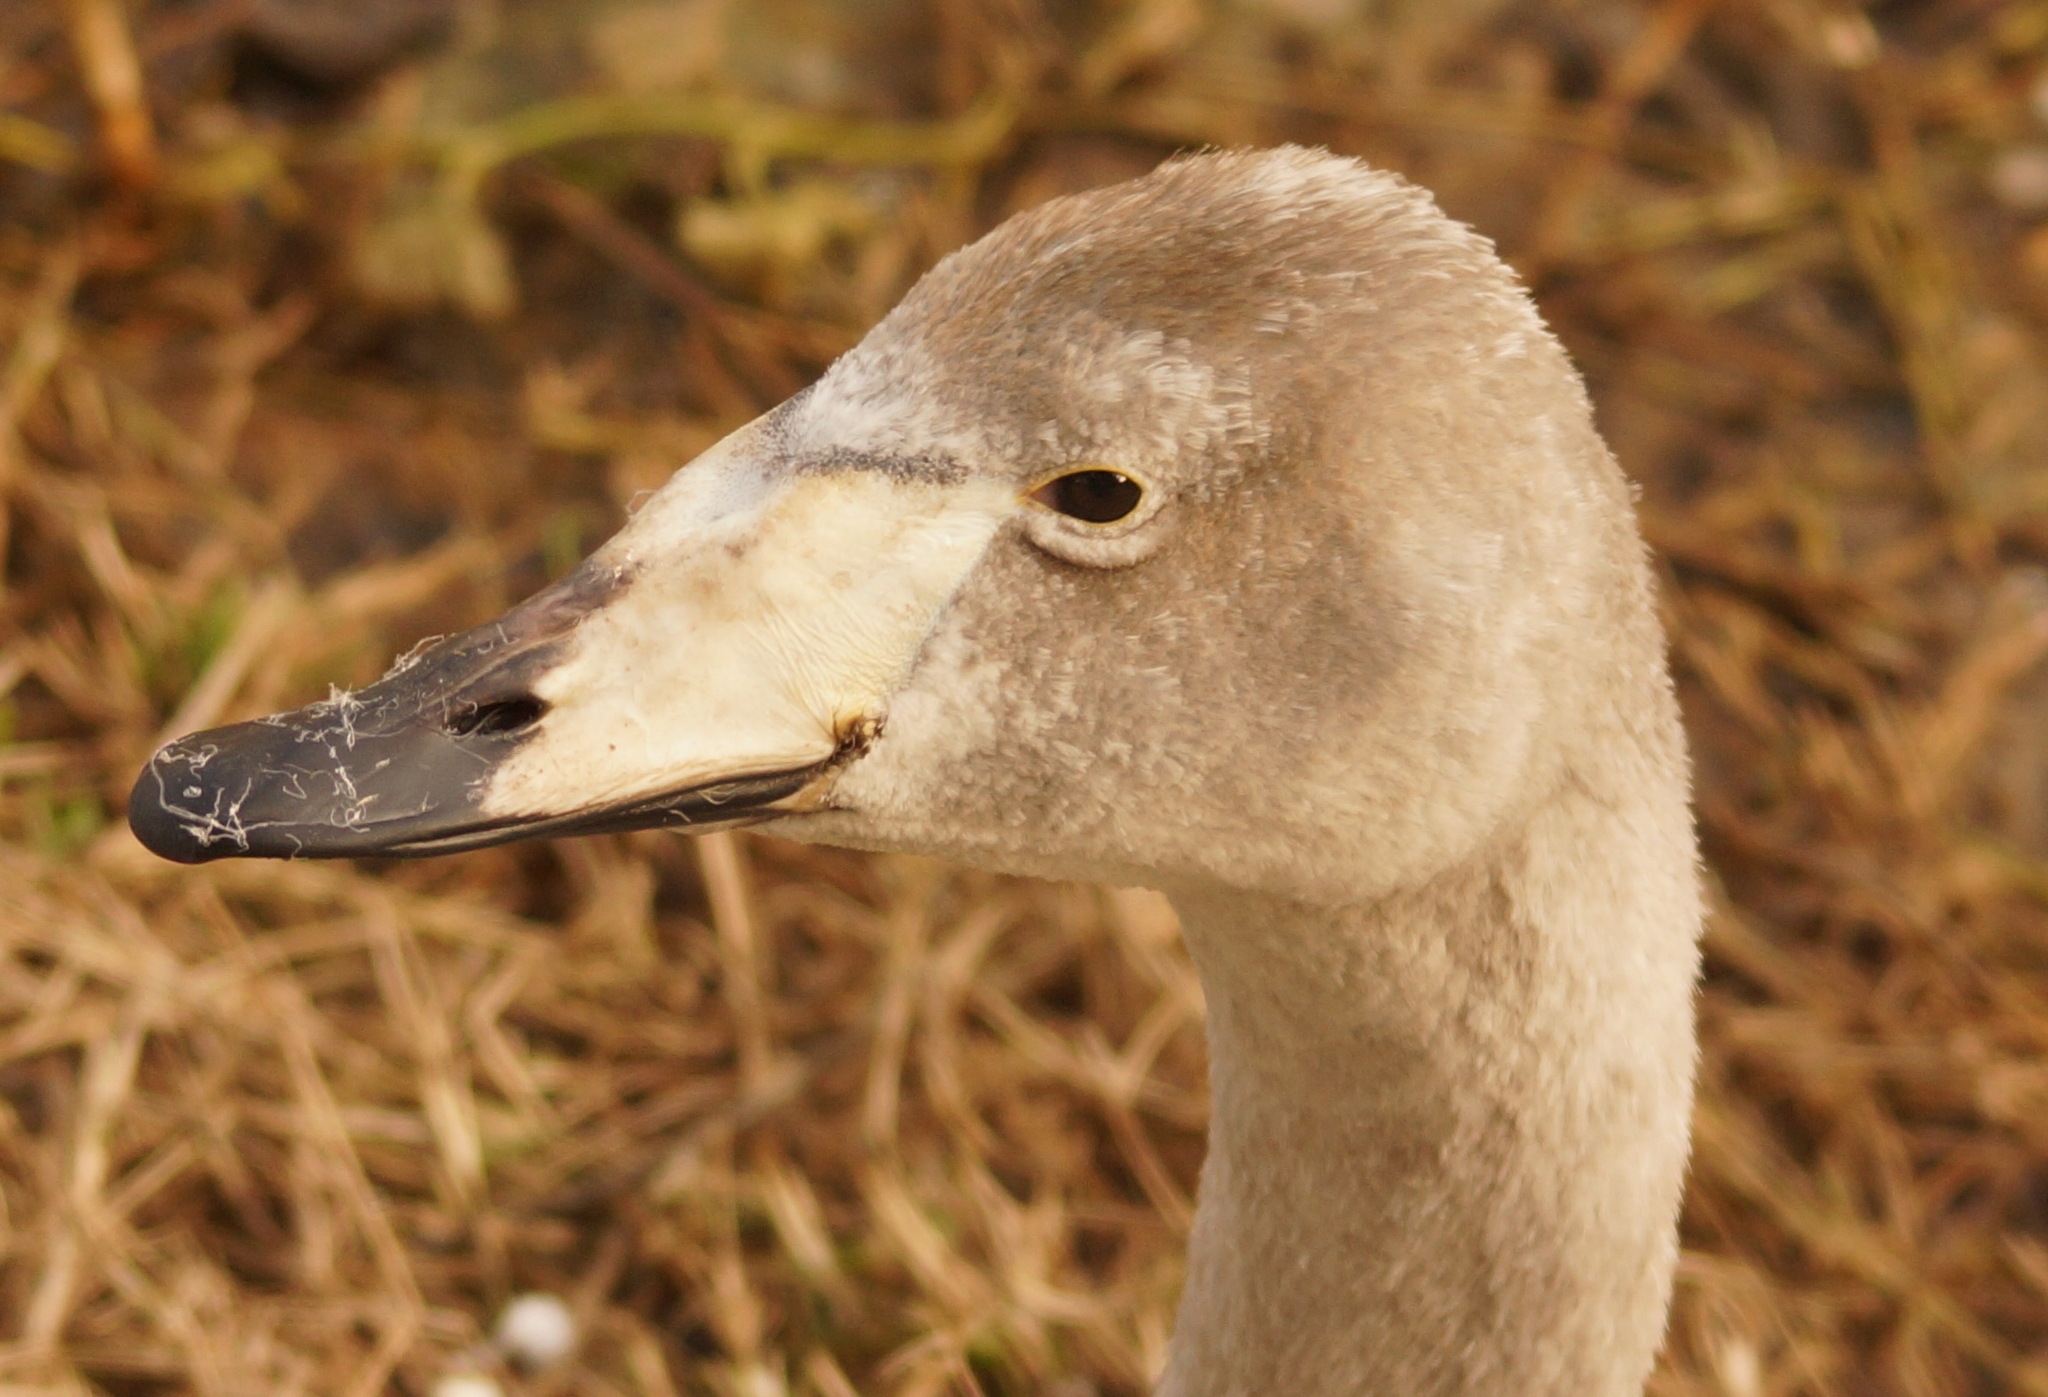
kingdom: Animalia
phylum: Chordata
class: Aves
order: Anseriformes
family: Anatidae
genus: Cygnus
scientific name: Cygnus cygnus
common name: Whooper swan
